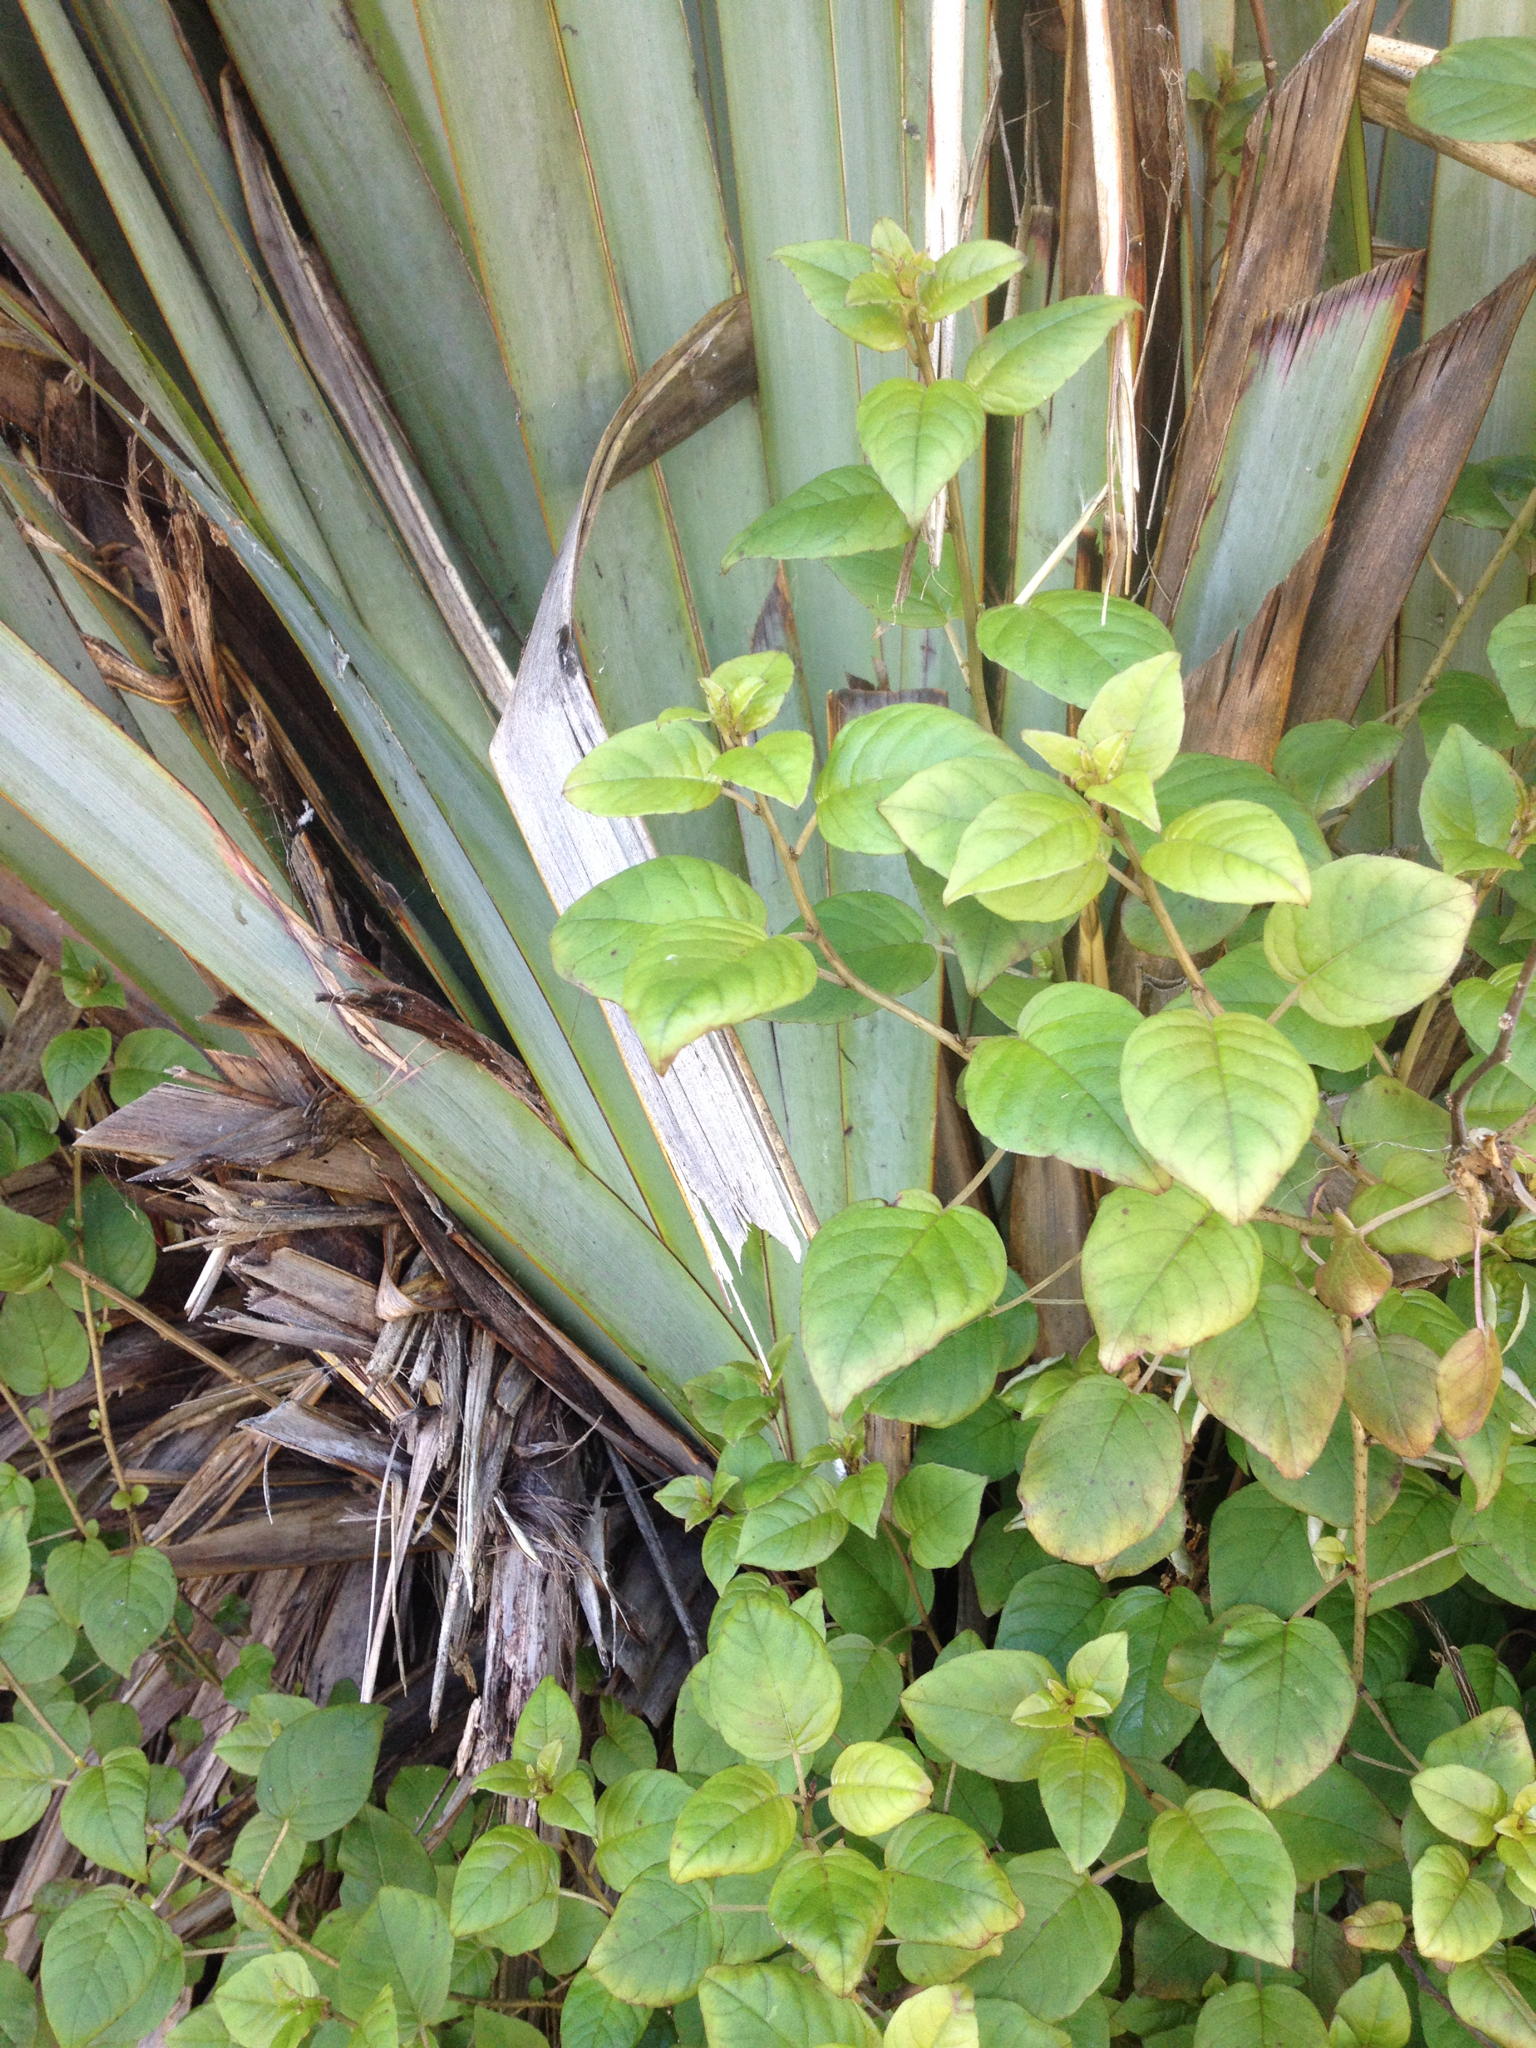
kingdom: Plantae
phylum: Tracheophyta
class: Magnoliopsida
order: Myrtales
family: Onagraceae
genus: Fuchsia
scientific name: Fuchsia perscandens
